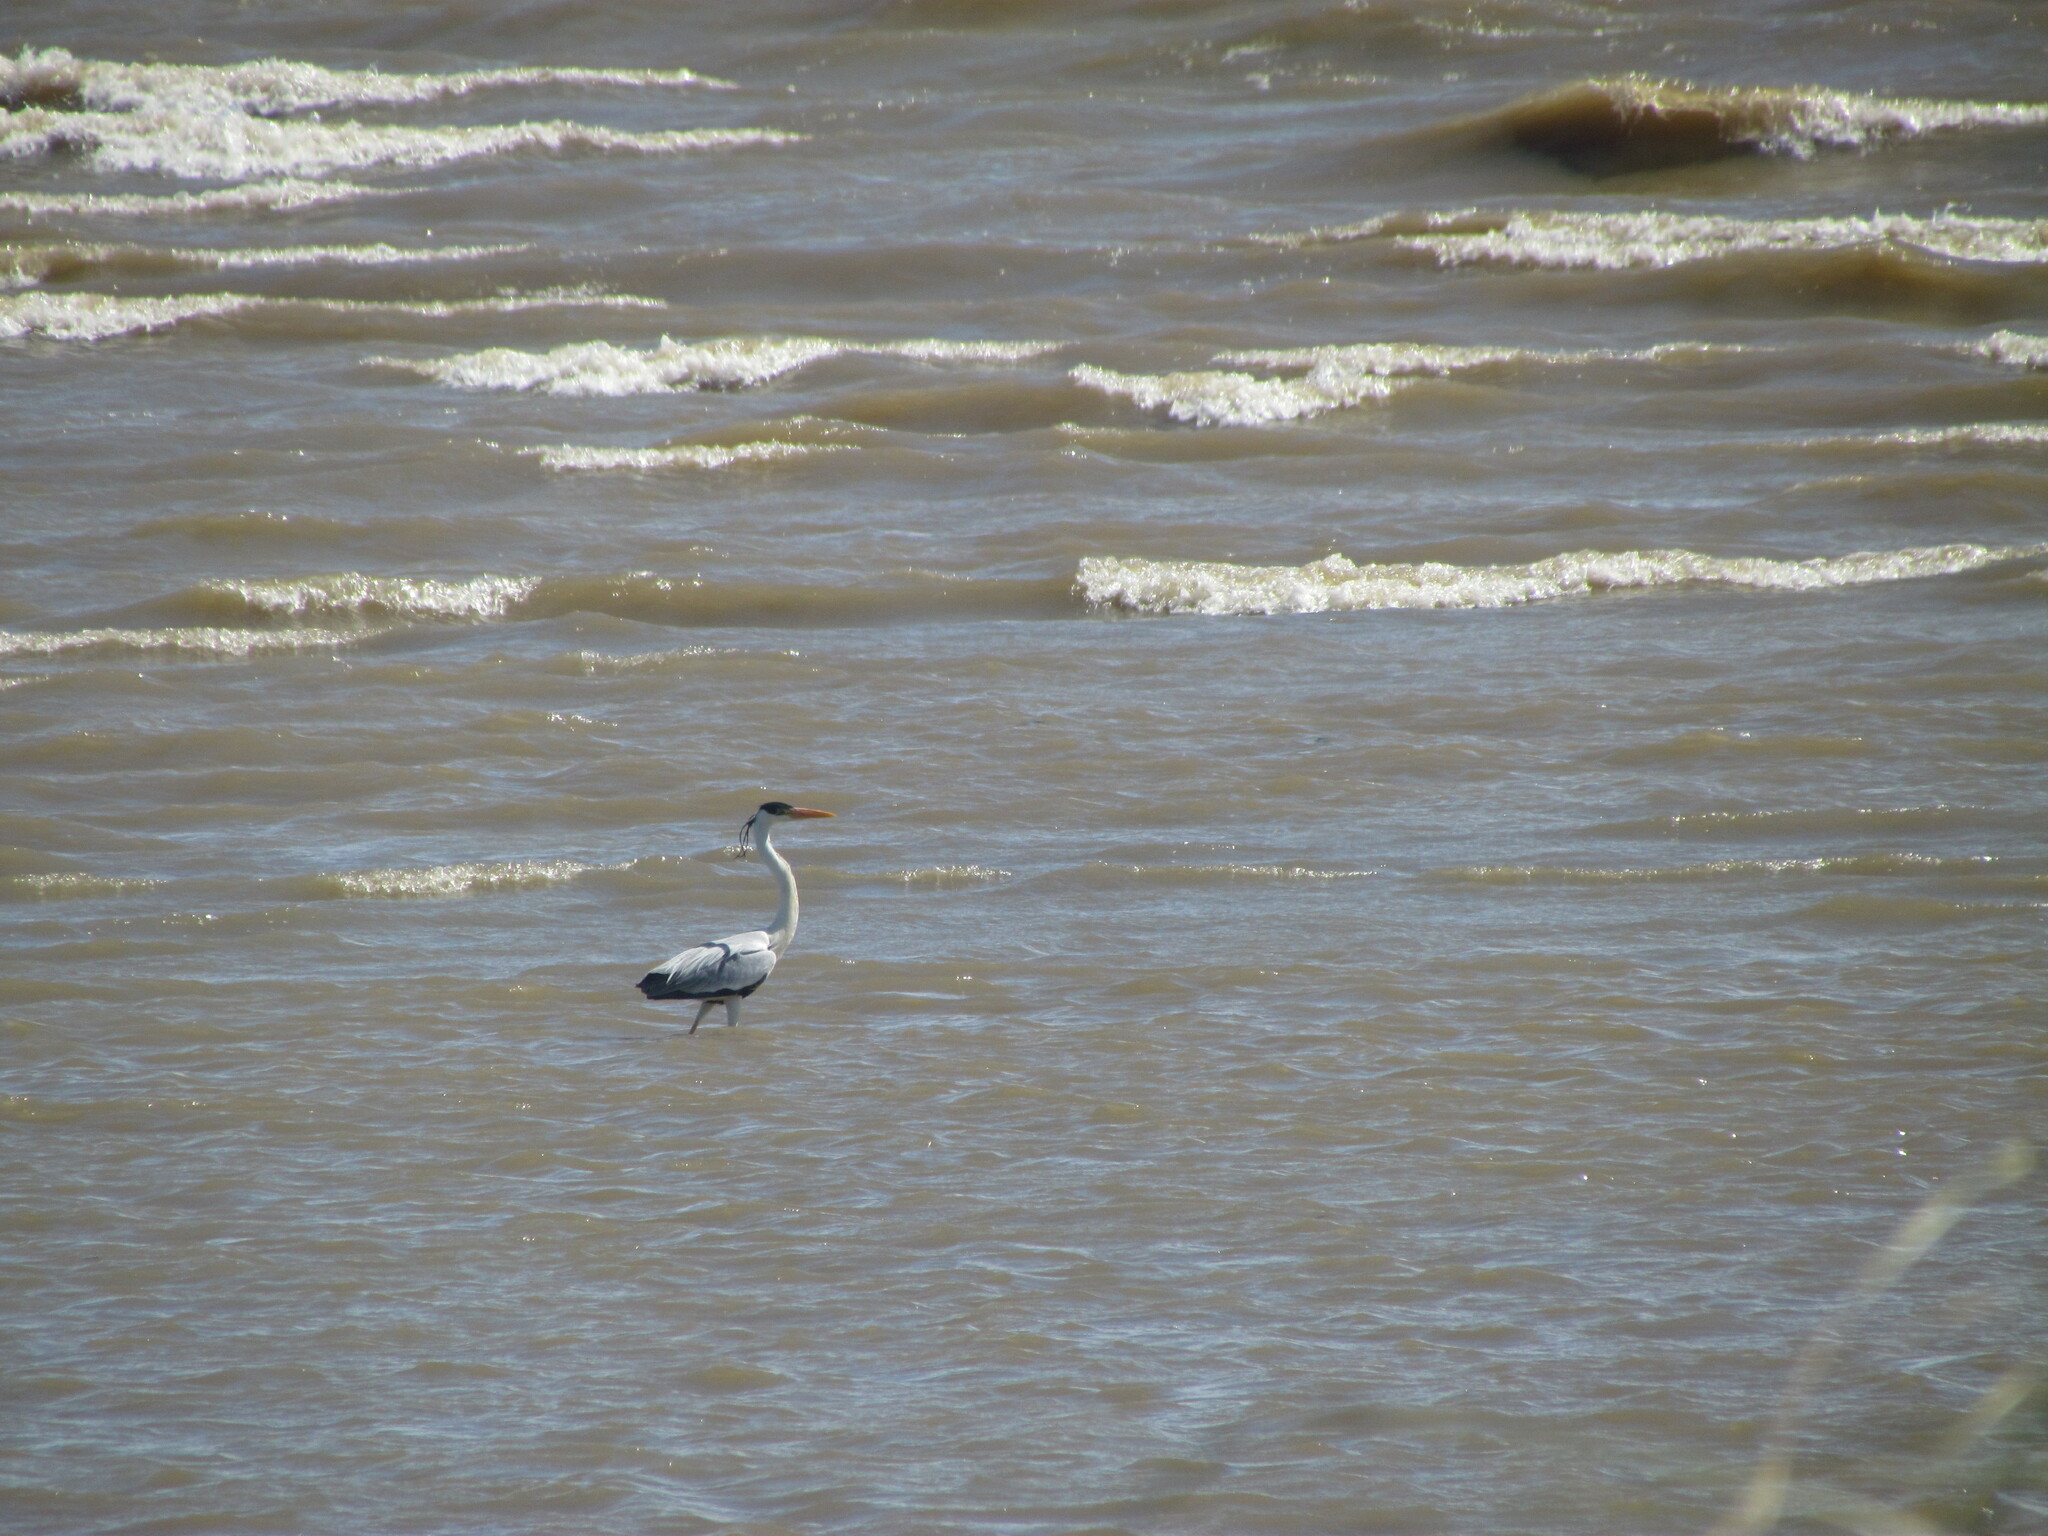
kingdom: Animalia
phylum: Chordata
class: Aves
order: Pelecaniformes
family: Ardeidae
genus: Ardea
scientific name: Ardea cocoi
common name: Cocoi heron
